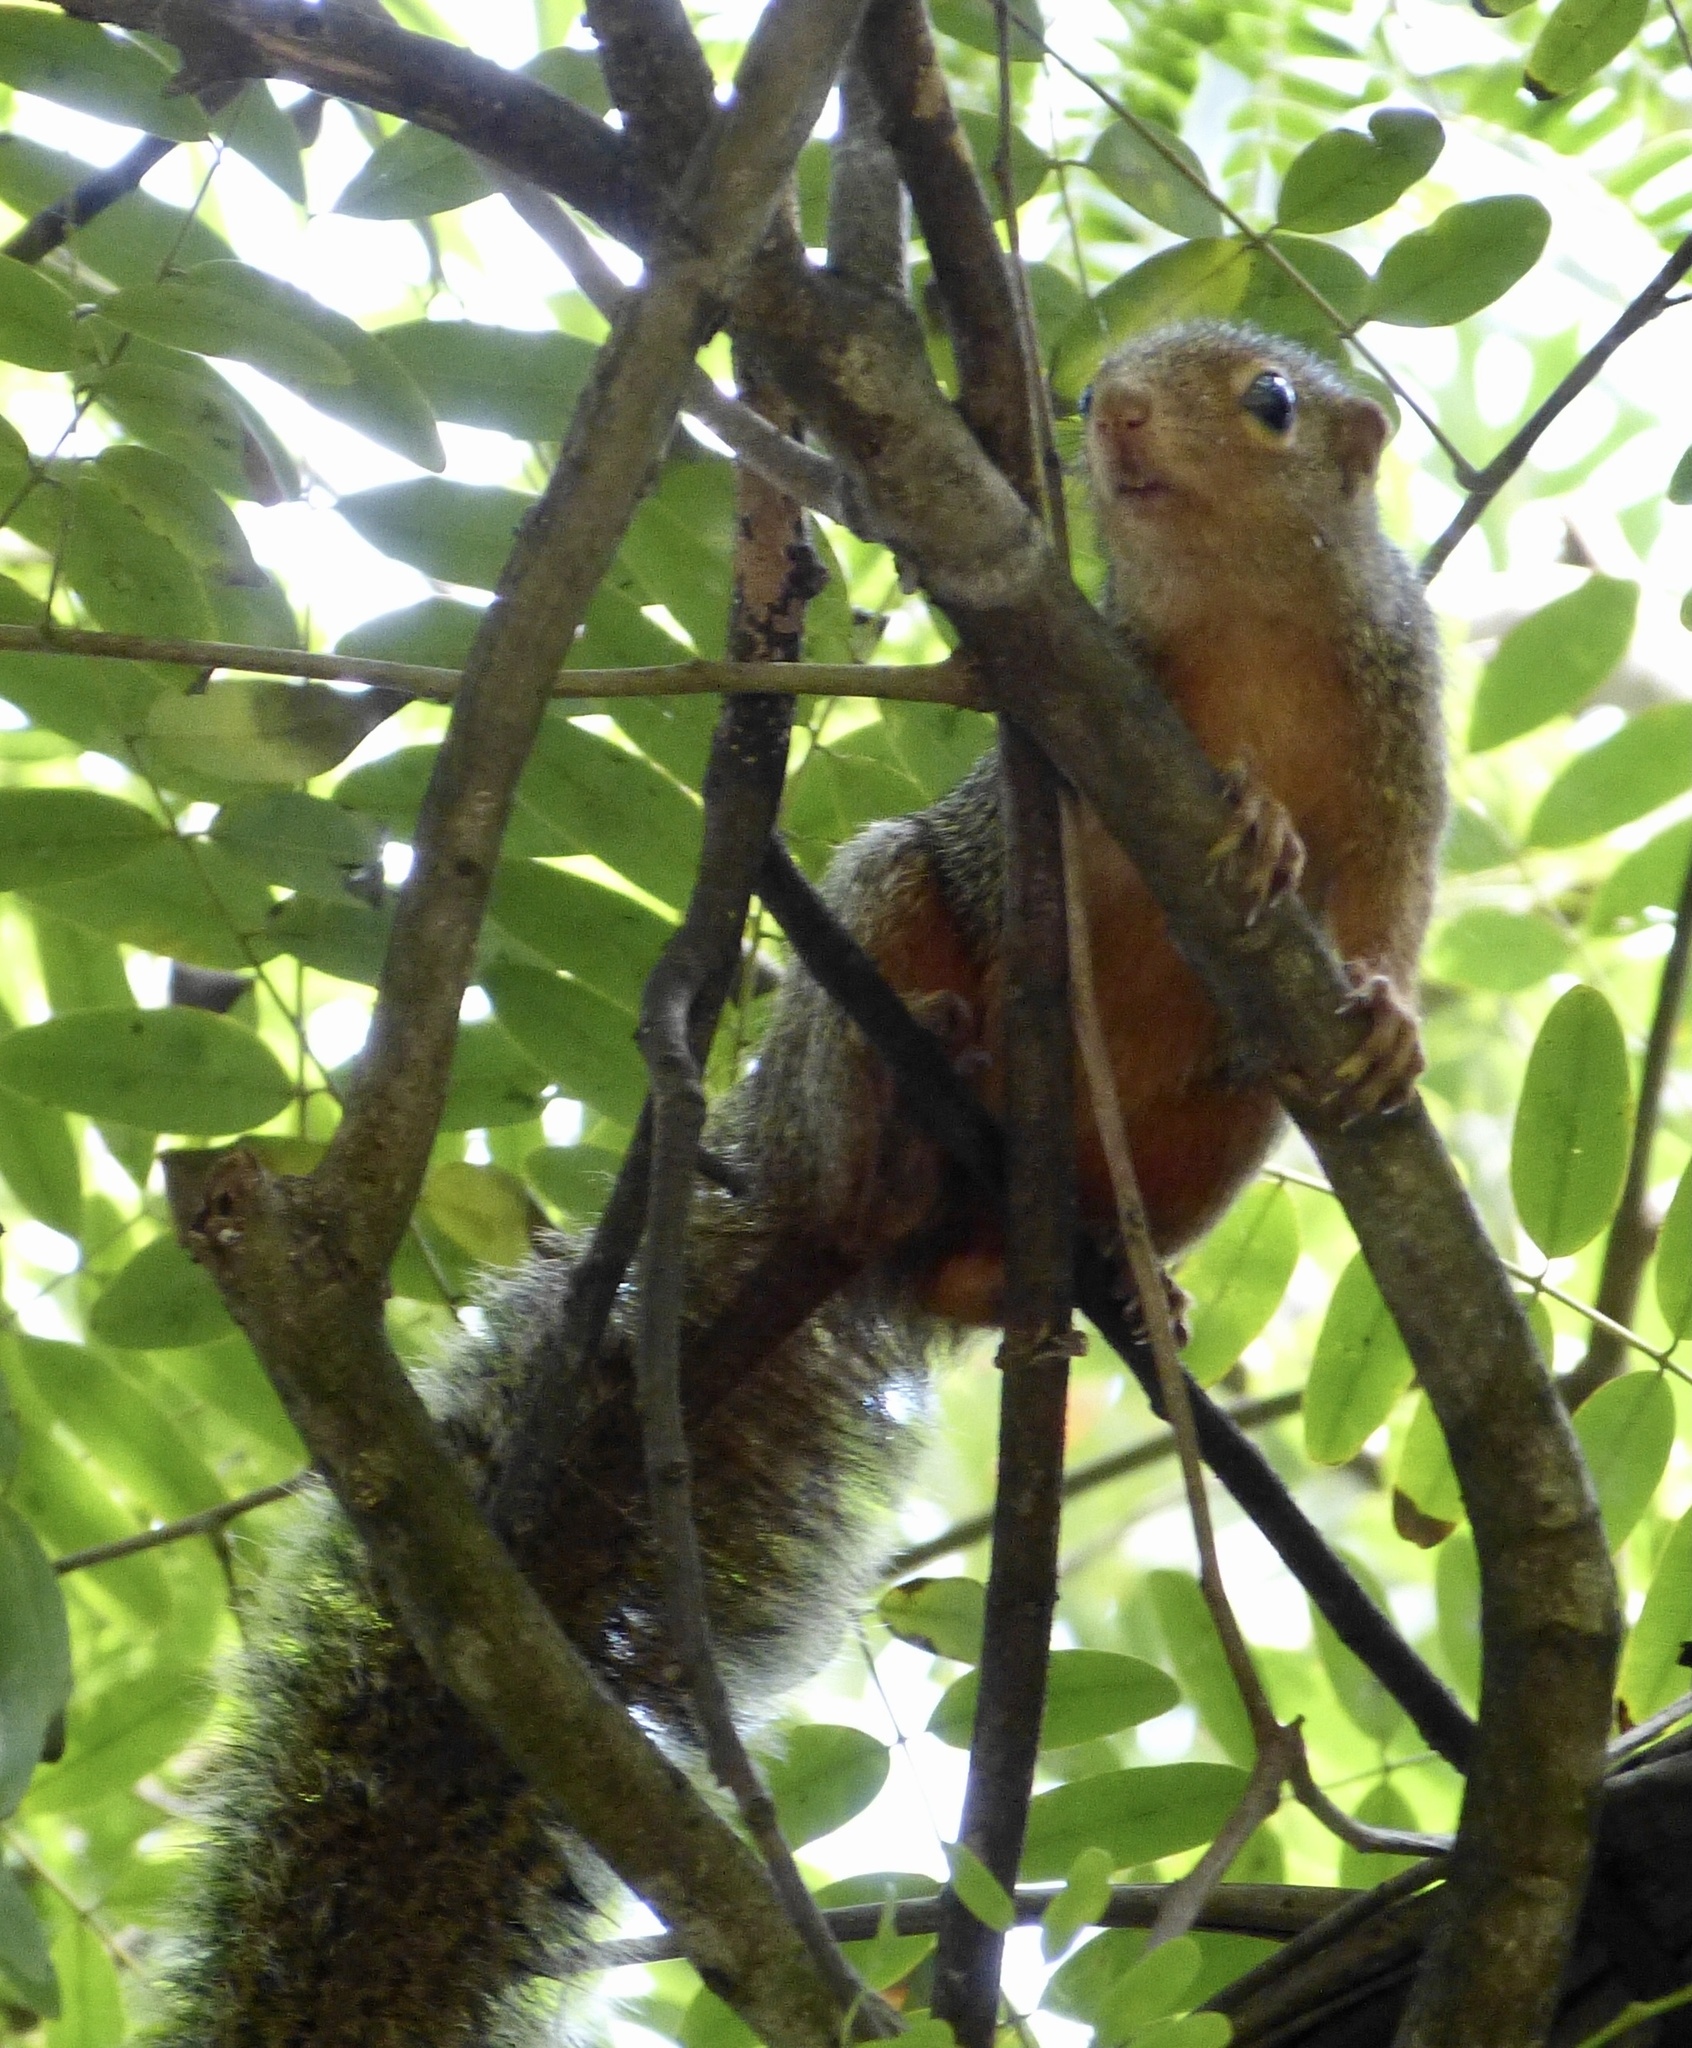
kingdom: Animalia
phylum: Chordata
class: Mammalia
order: Rodentia
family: Sciuridae
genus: Heliosciurus
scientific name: Heliosciurus undulatus
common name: Zanj sun squirrel
